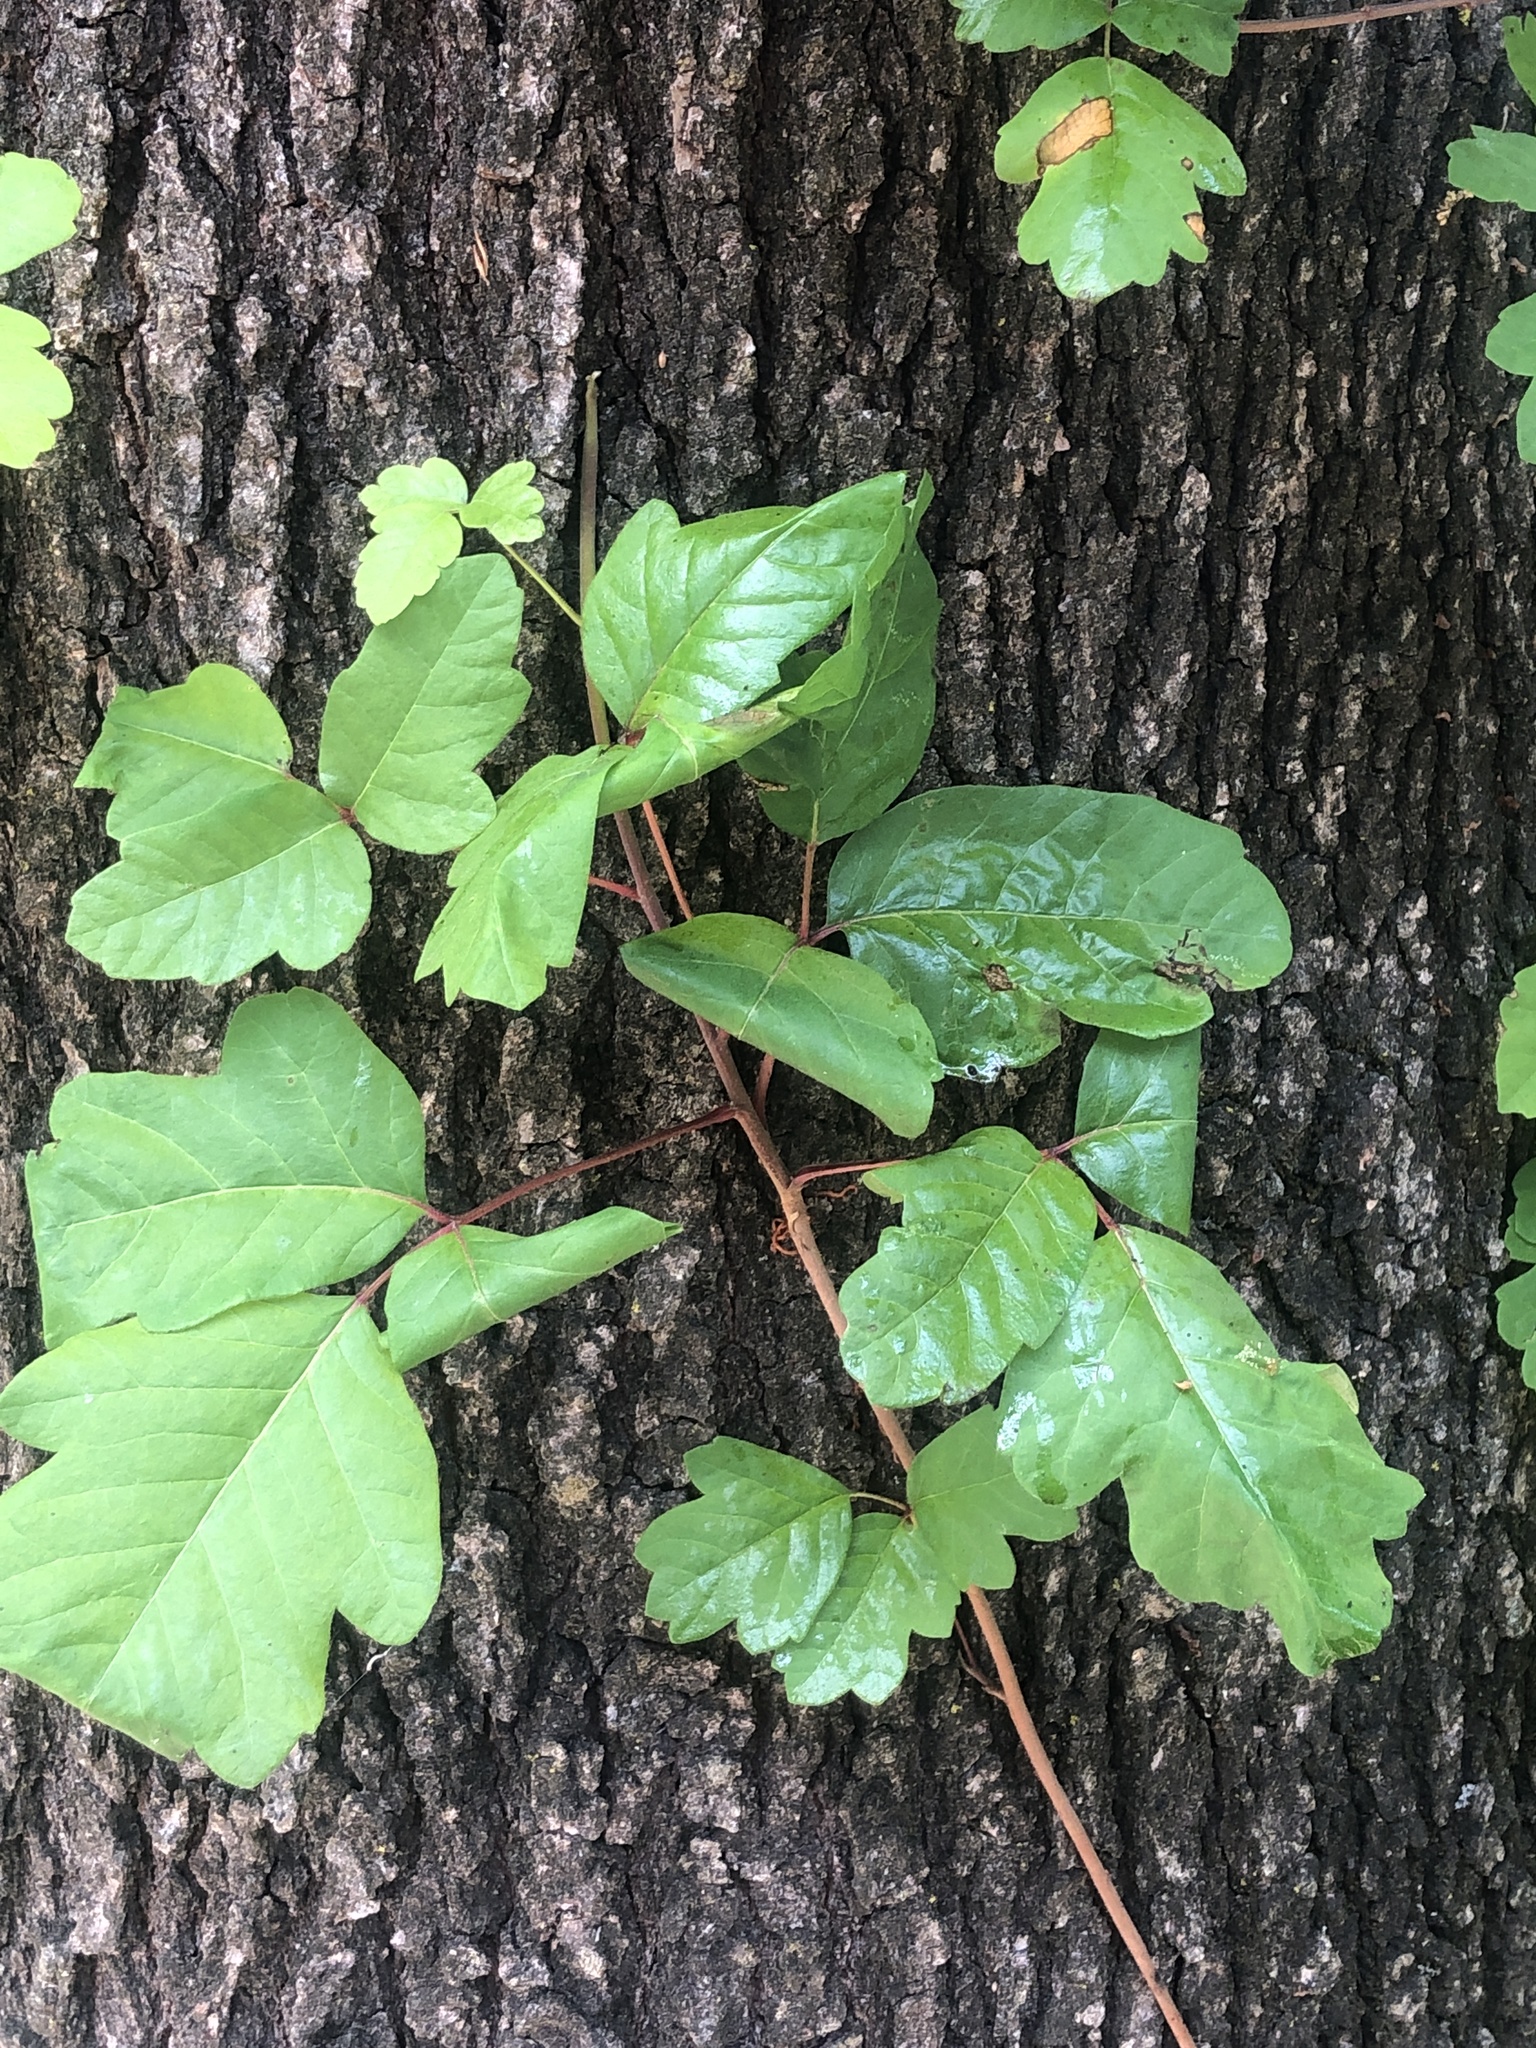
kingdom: Plantae
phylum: Tracheophyta
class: Magnoliopsida
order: Sapindales
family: Anacardiaceae
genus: Toxicodendron
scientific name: Toxicodendron diversilobum
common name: Pacific poison-oak
